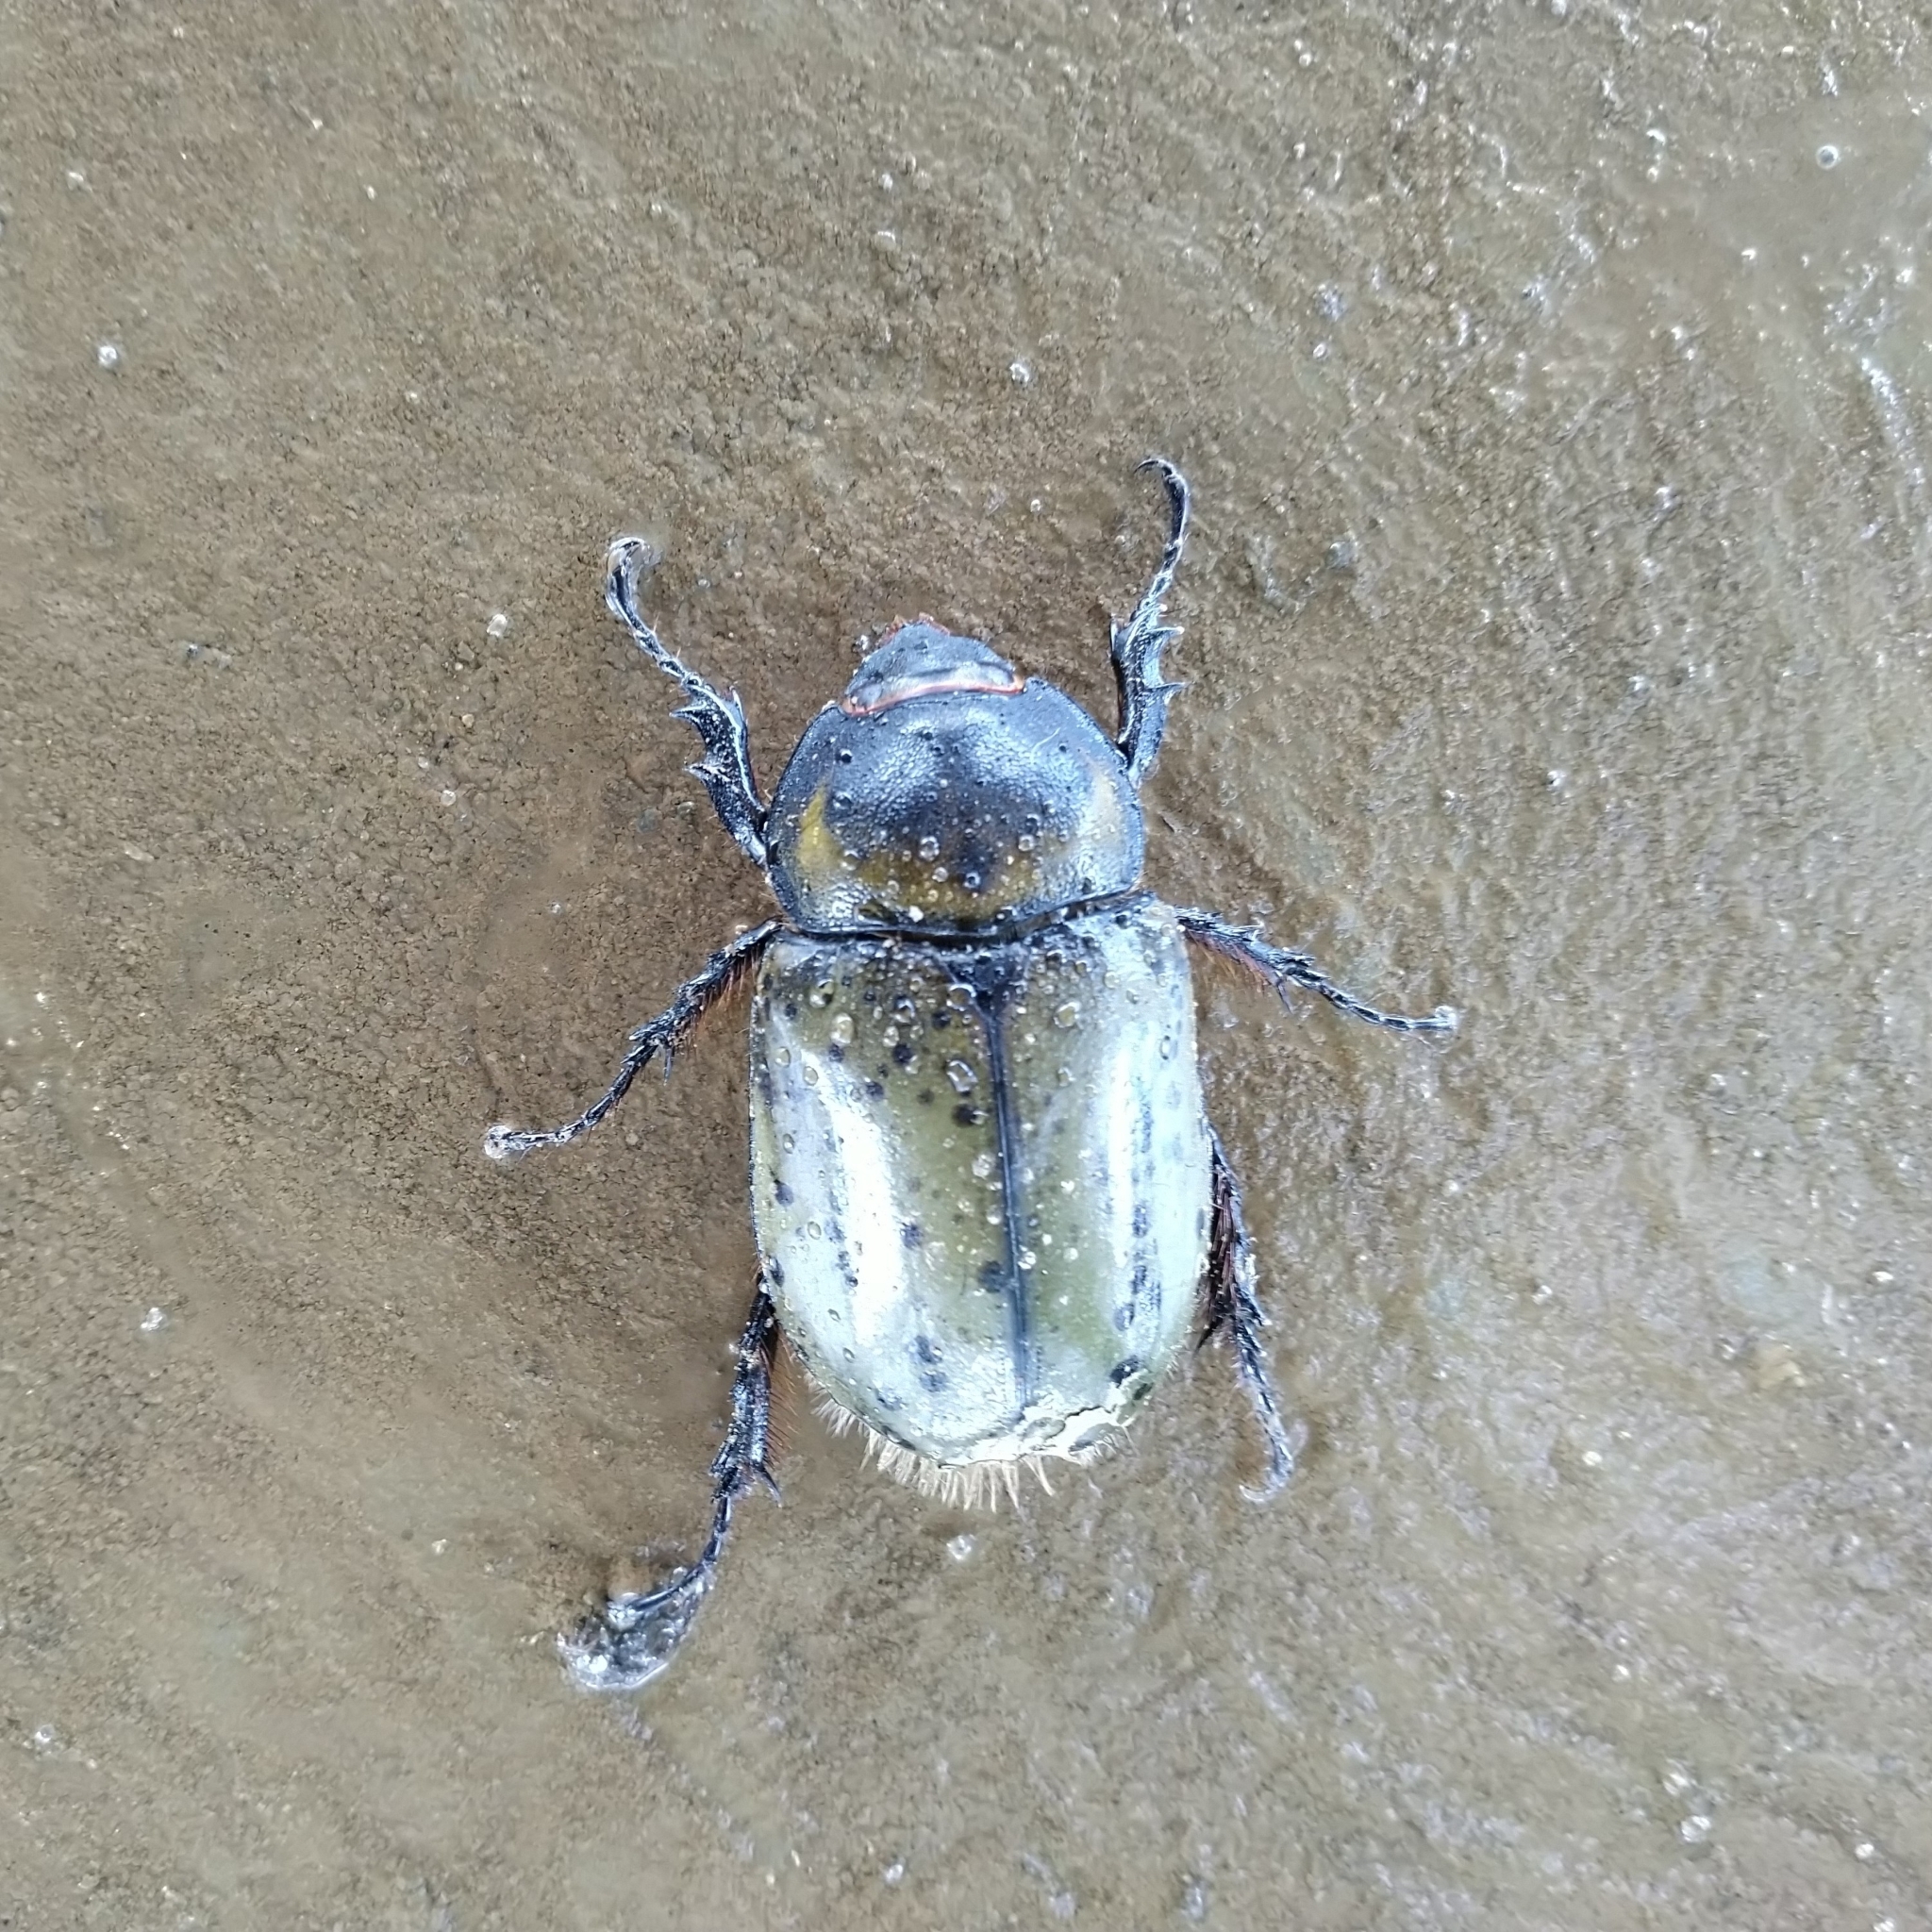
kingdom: Animalia
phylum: Arthropoda
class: Insecta
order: Coleoptera
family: Scarabaeidae
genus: Dynastes
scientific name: Dynastes hyllus
